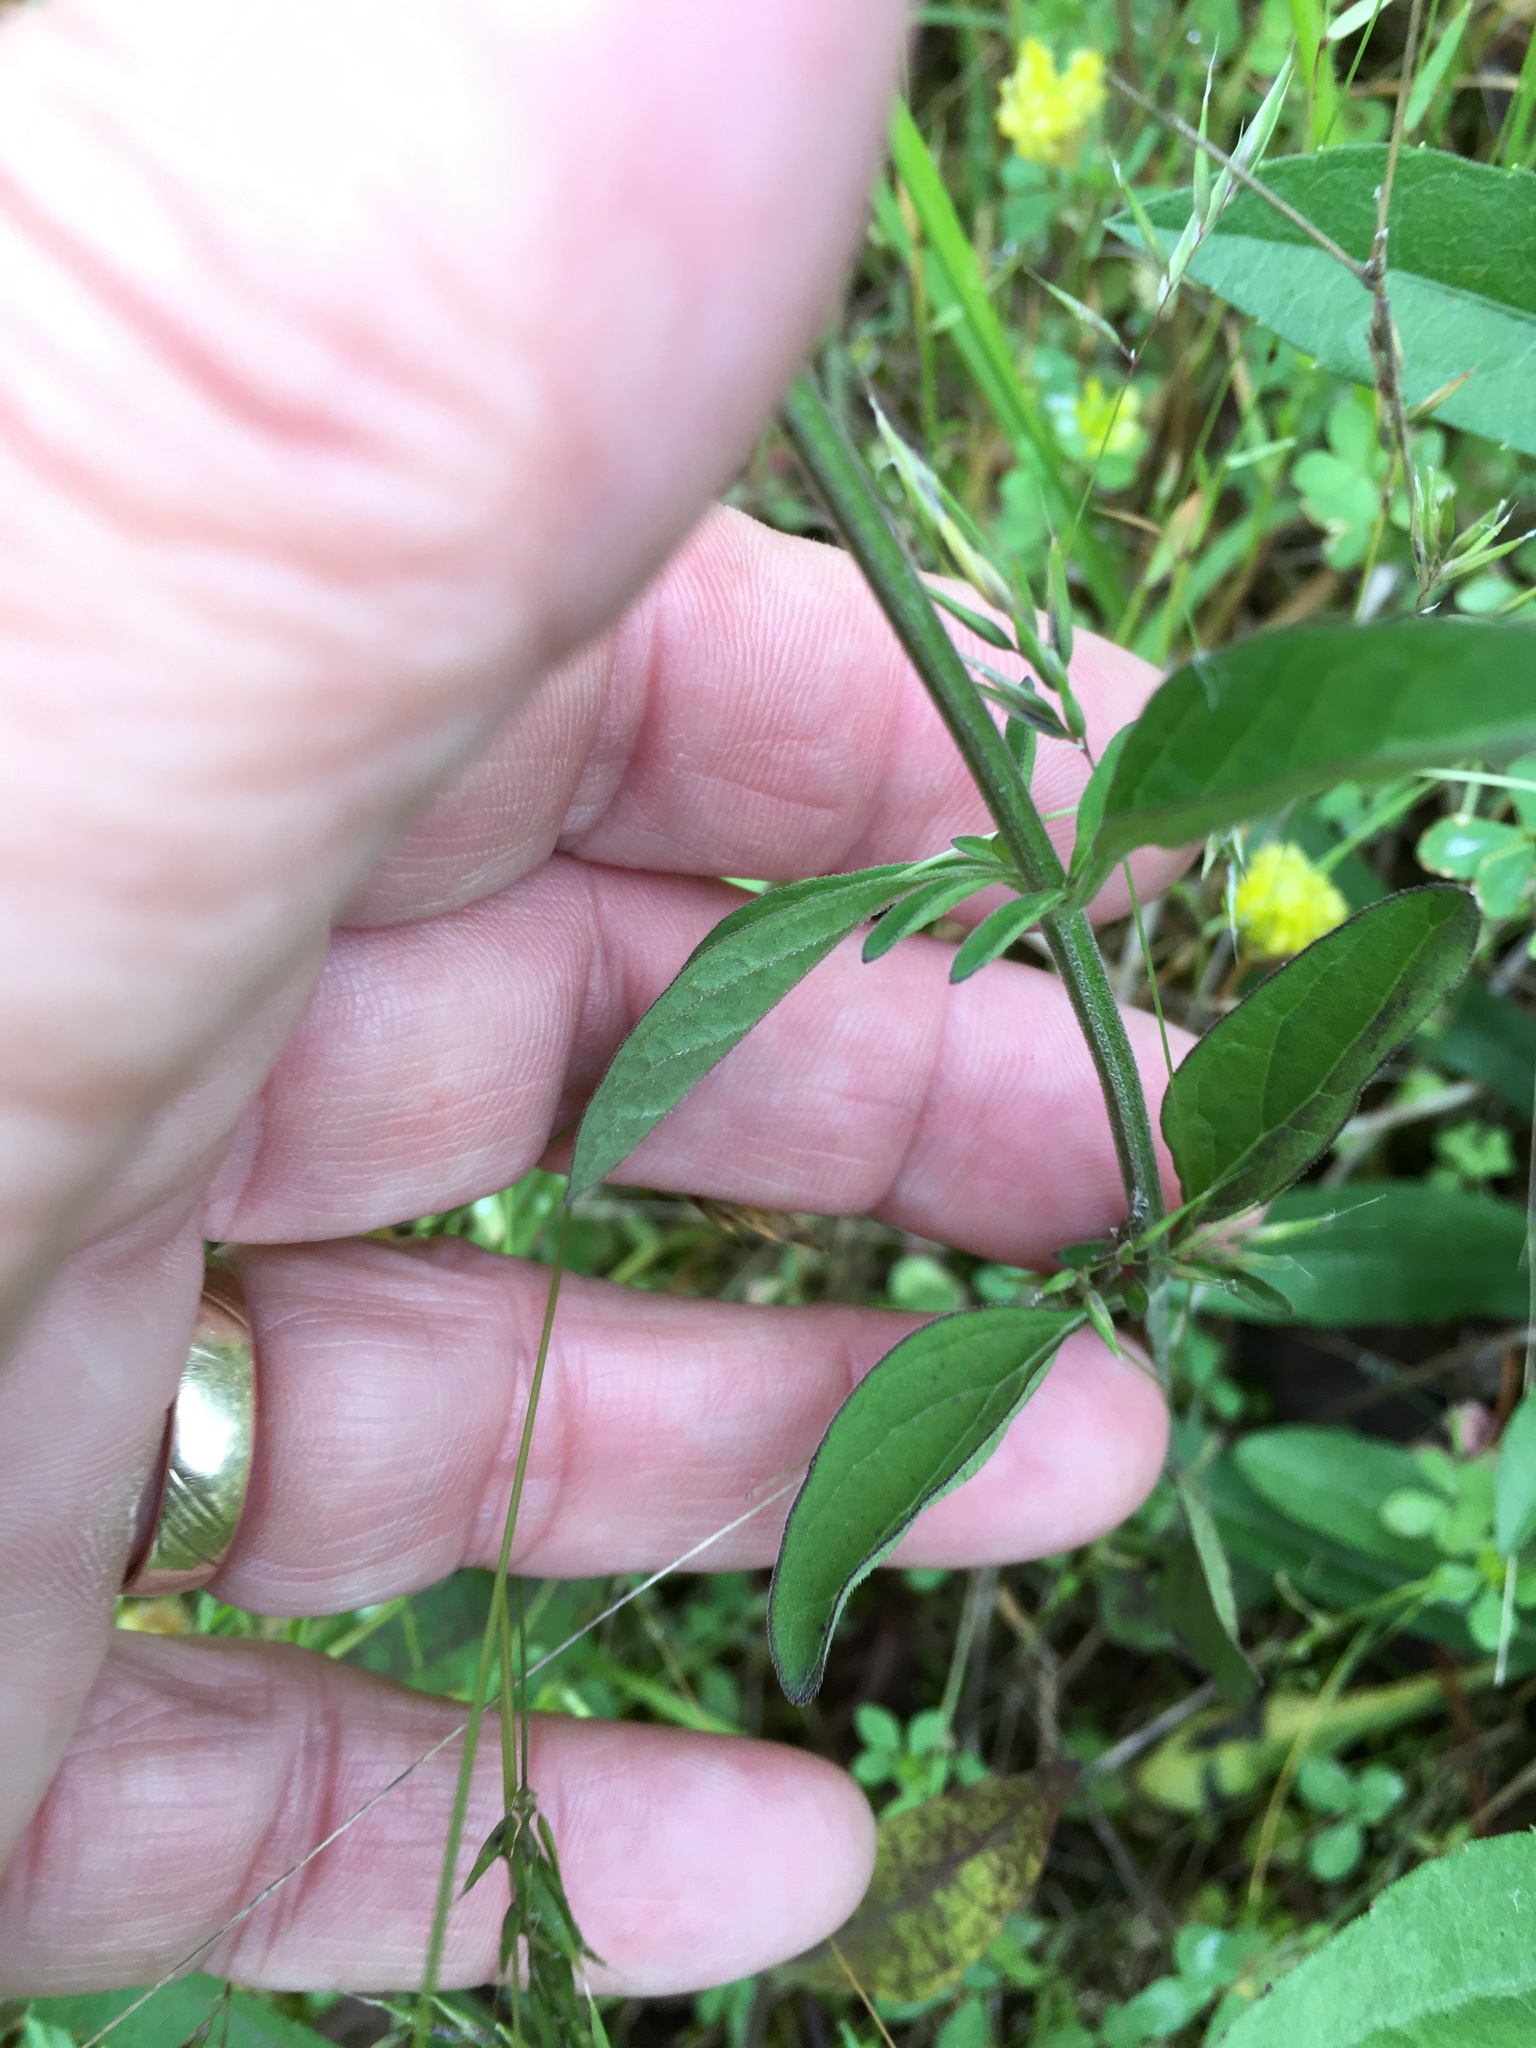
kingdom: Plantae
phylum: Tracheophyta
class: Magnoliopsida
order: Lamiales
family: Lamiaceae
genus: Scutellaria
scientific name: Scutellaria integrifolia
